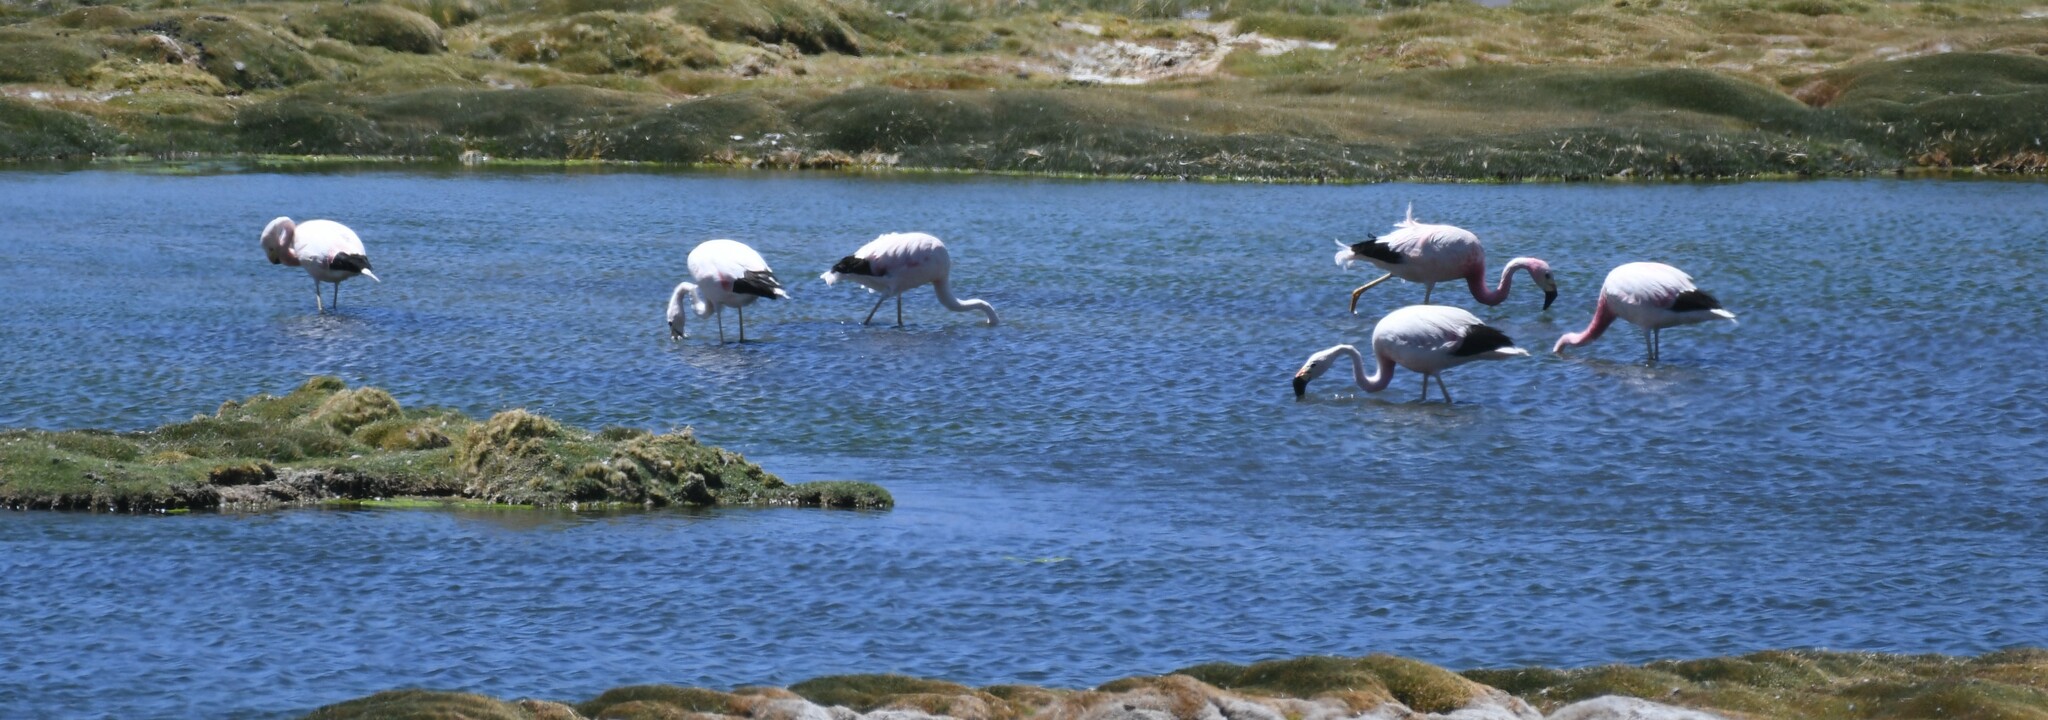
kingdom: Animalia
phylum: Chordata
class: Aves
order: Phoenicopteriformes
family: Phoenicopteridae
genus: Phoenicoparrus
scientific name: Phoenicoparrus andinus
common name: Andean flamingo
